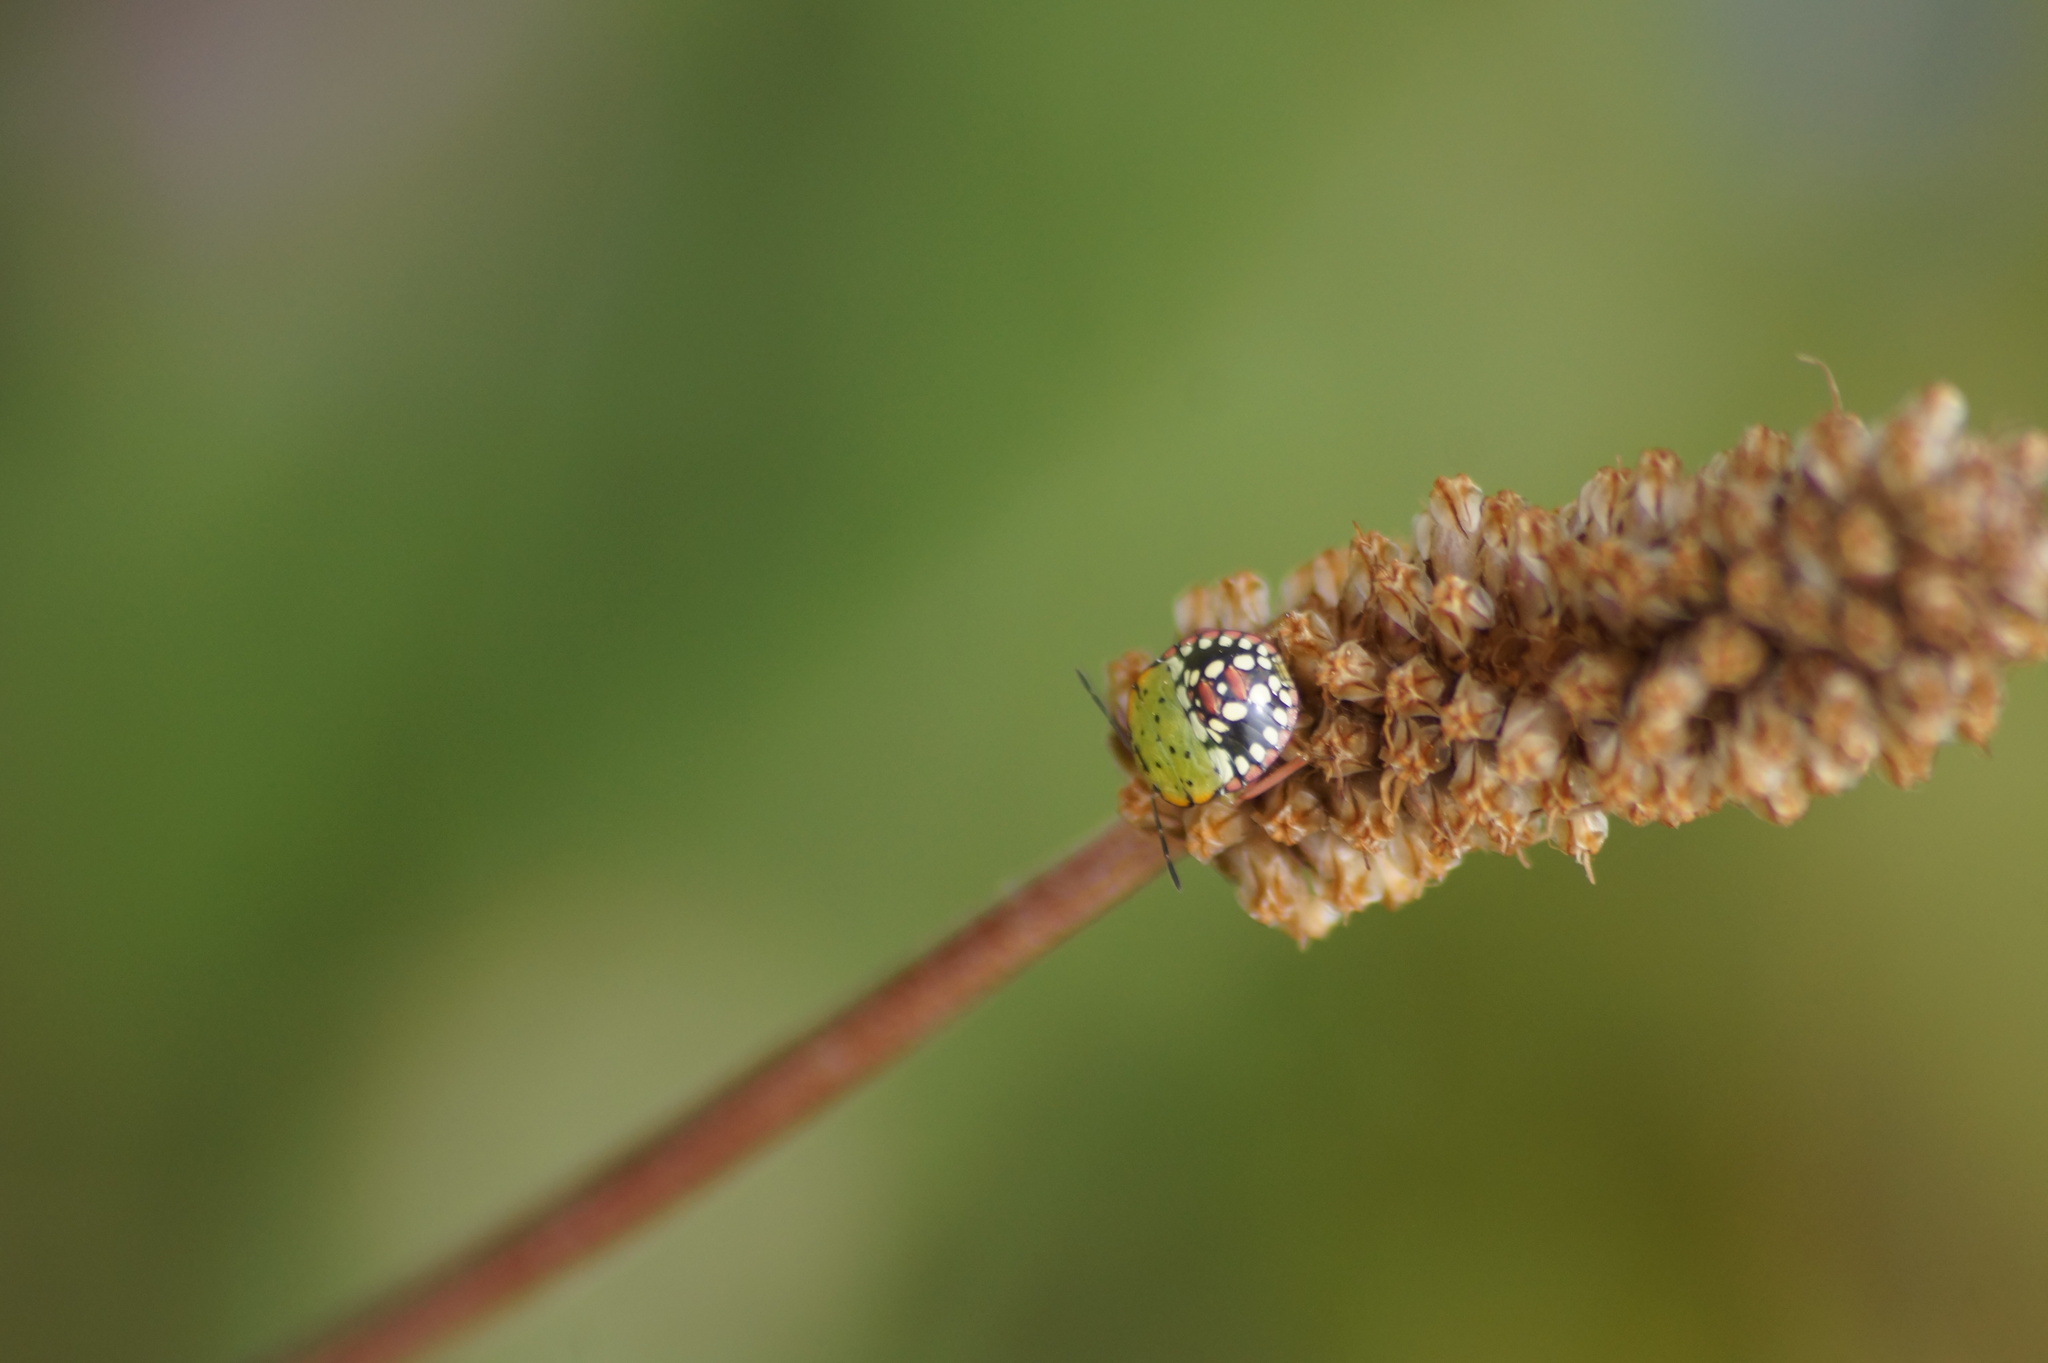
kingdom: Animalia
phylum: Arthropoda
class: Insecta
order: Hemiptera
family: Pentatomidae
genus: Nezara
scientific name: Nezara viridula
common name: Southern green stink bug
